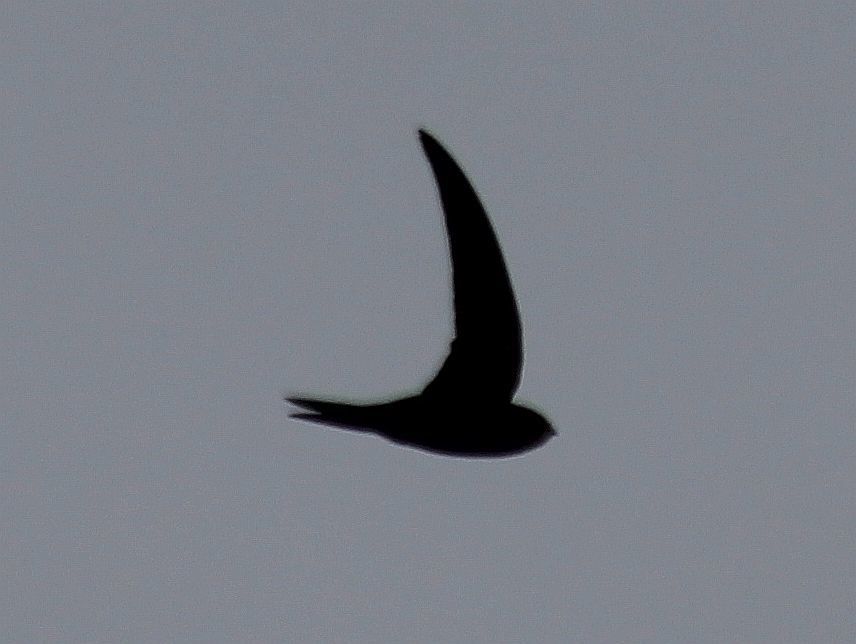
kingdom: Animalia
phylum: Chordata
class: Aves
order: Apodiformes
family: Apodidae
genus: Apus
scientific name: Apus apus
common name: Common swift
